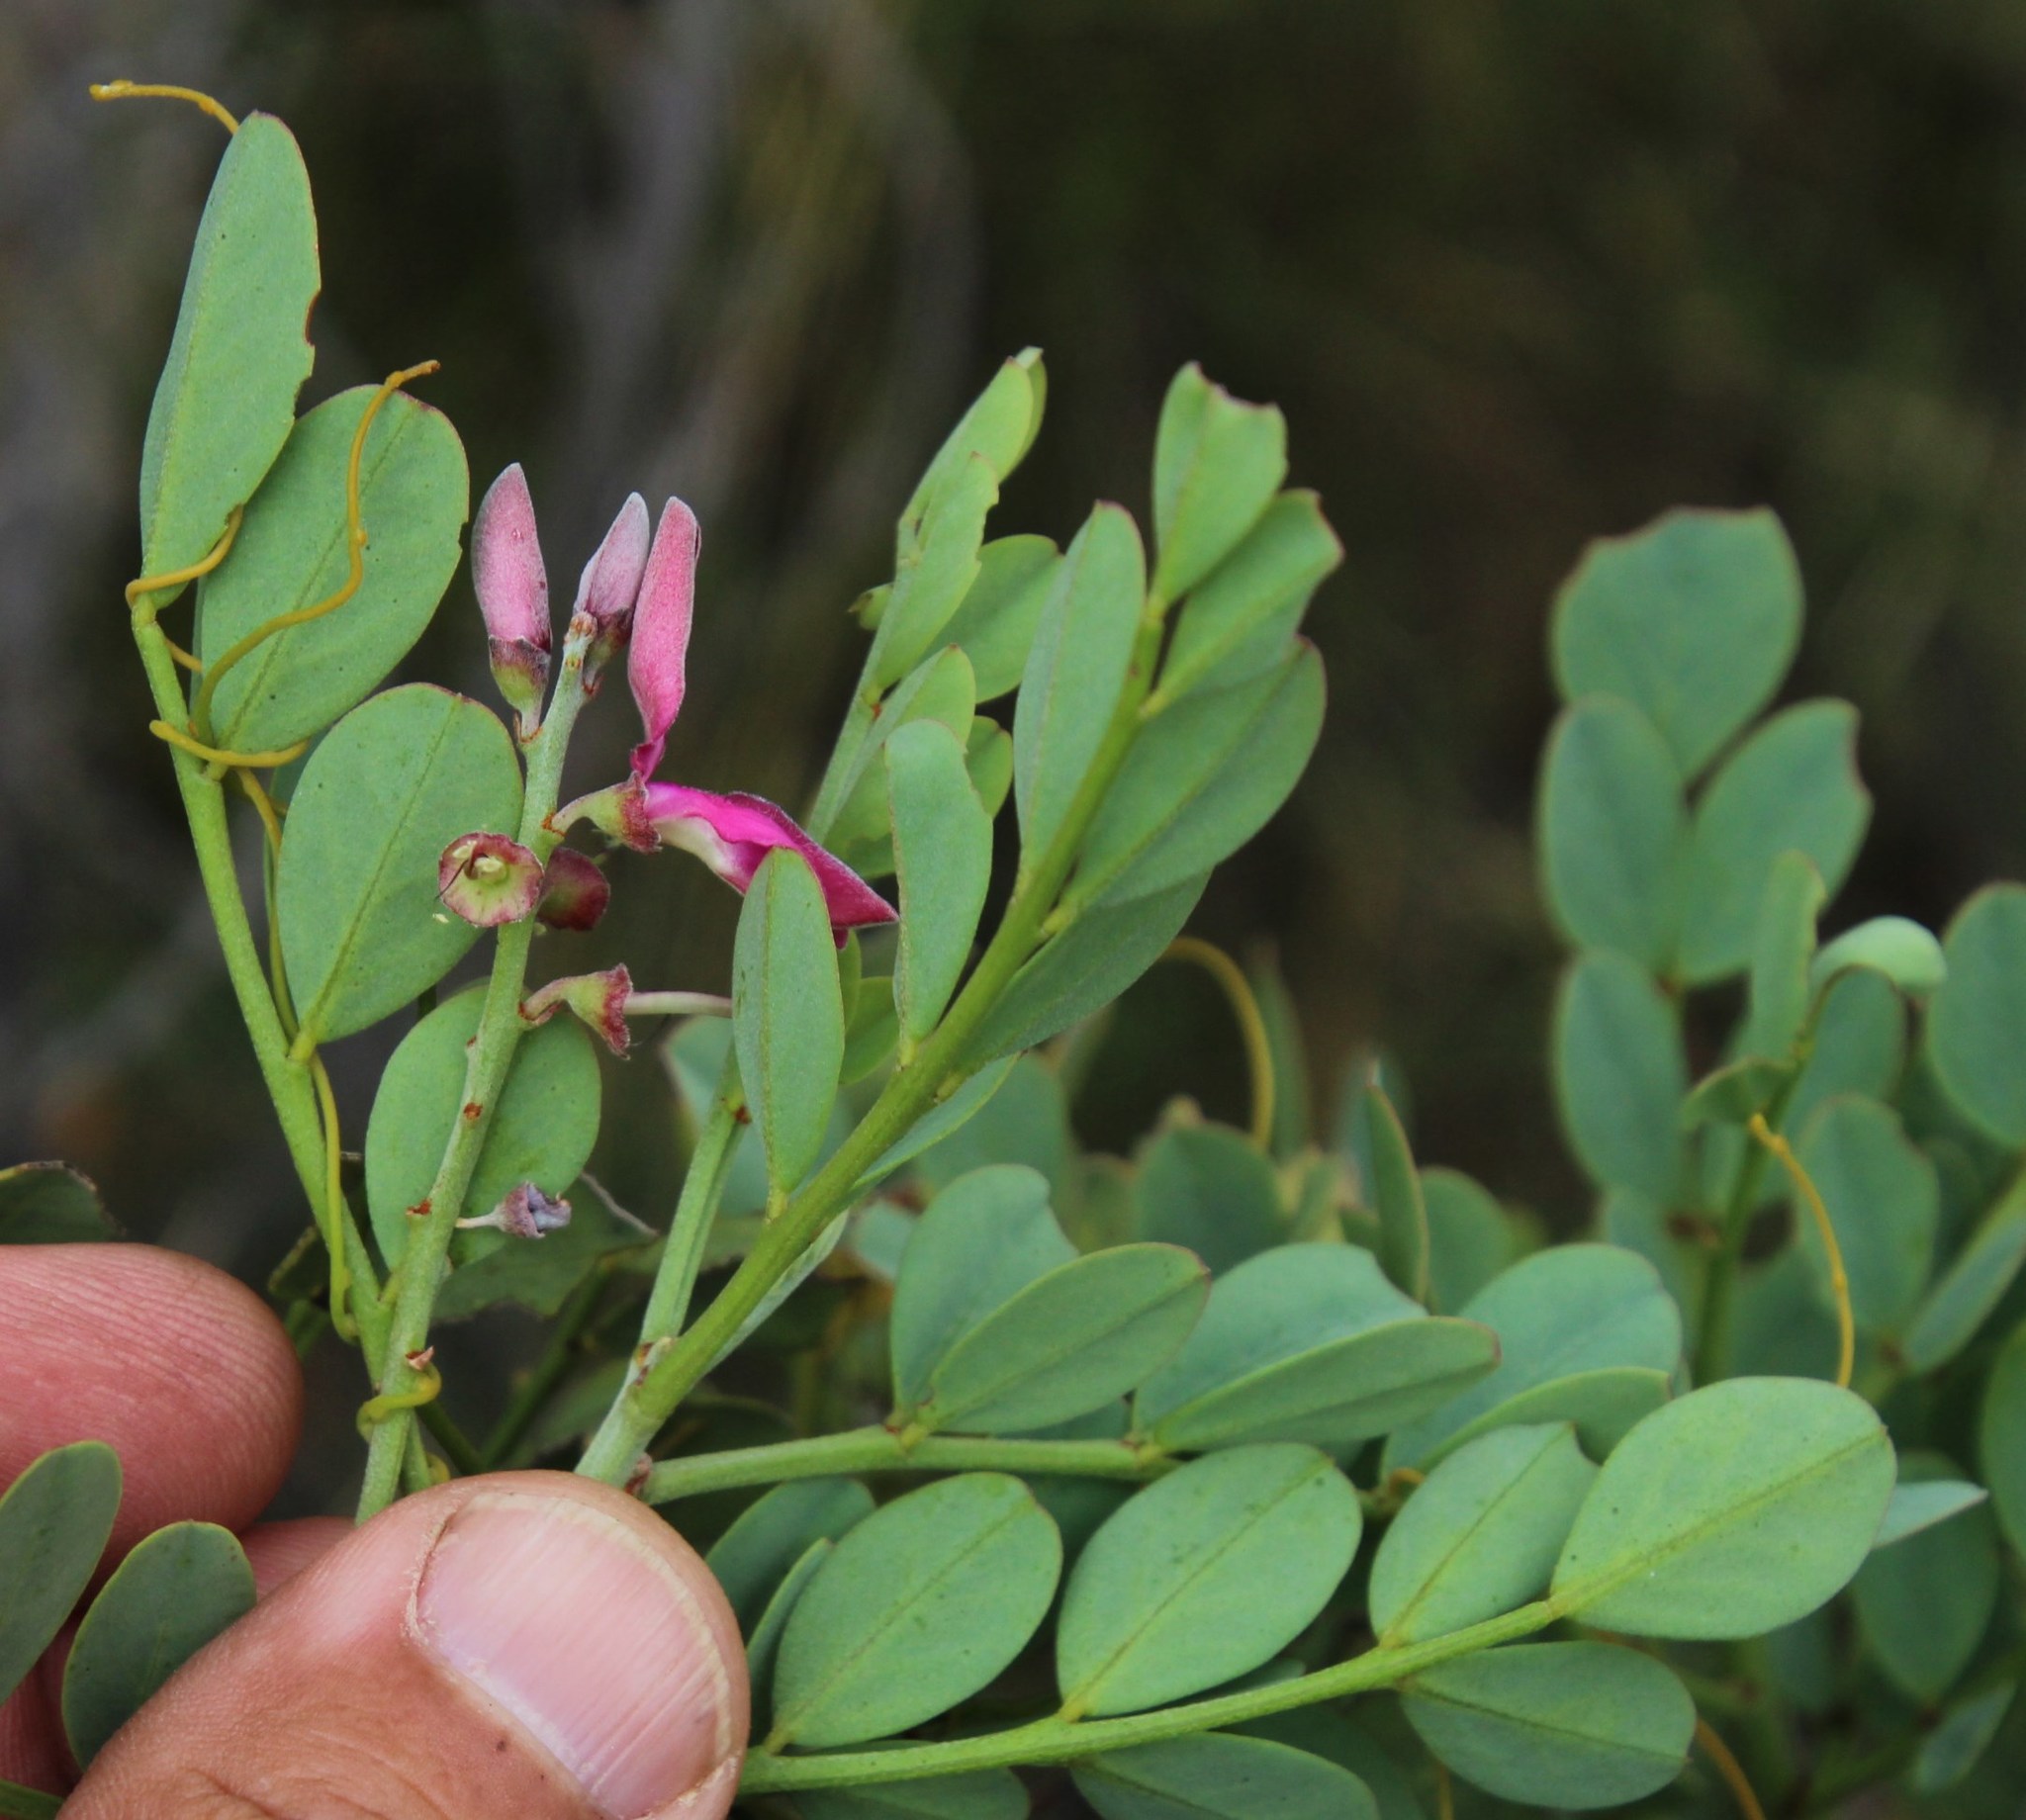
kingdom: Plantae
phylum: Tracheophyta
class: Magnoliopsida
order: Fabales
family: Fabaceae
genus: Indigofera
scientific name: Indigofera frutescens
